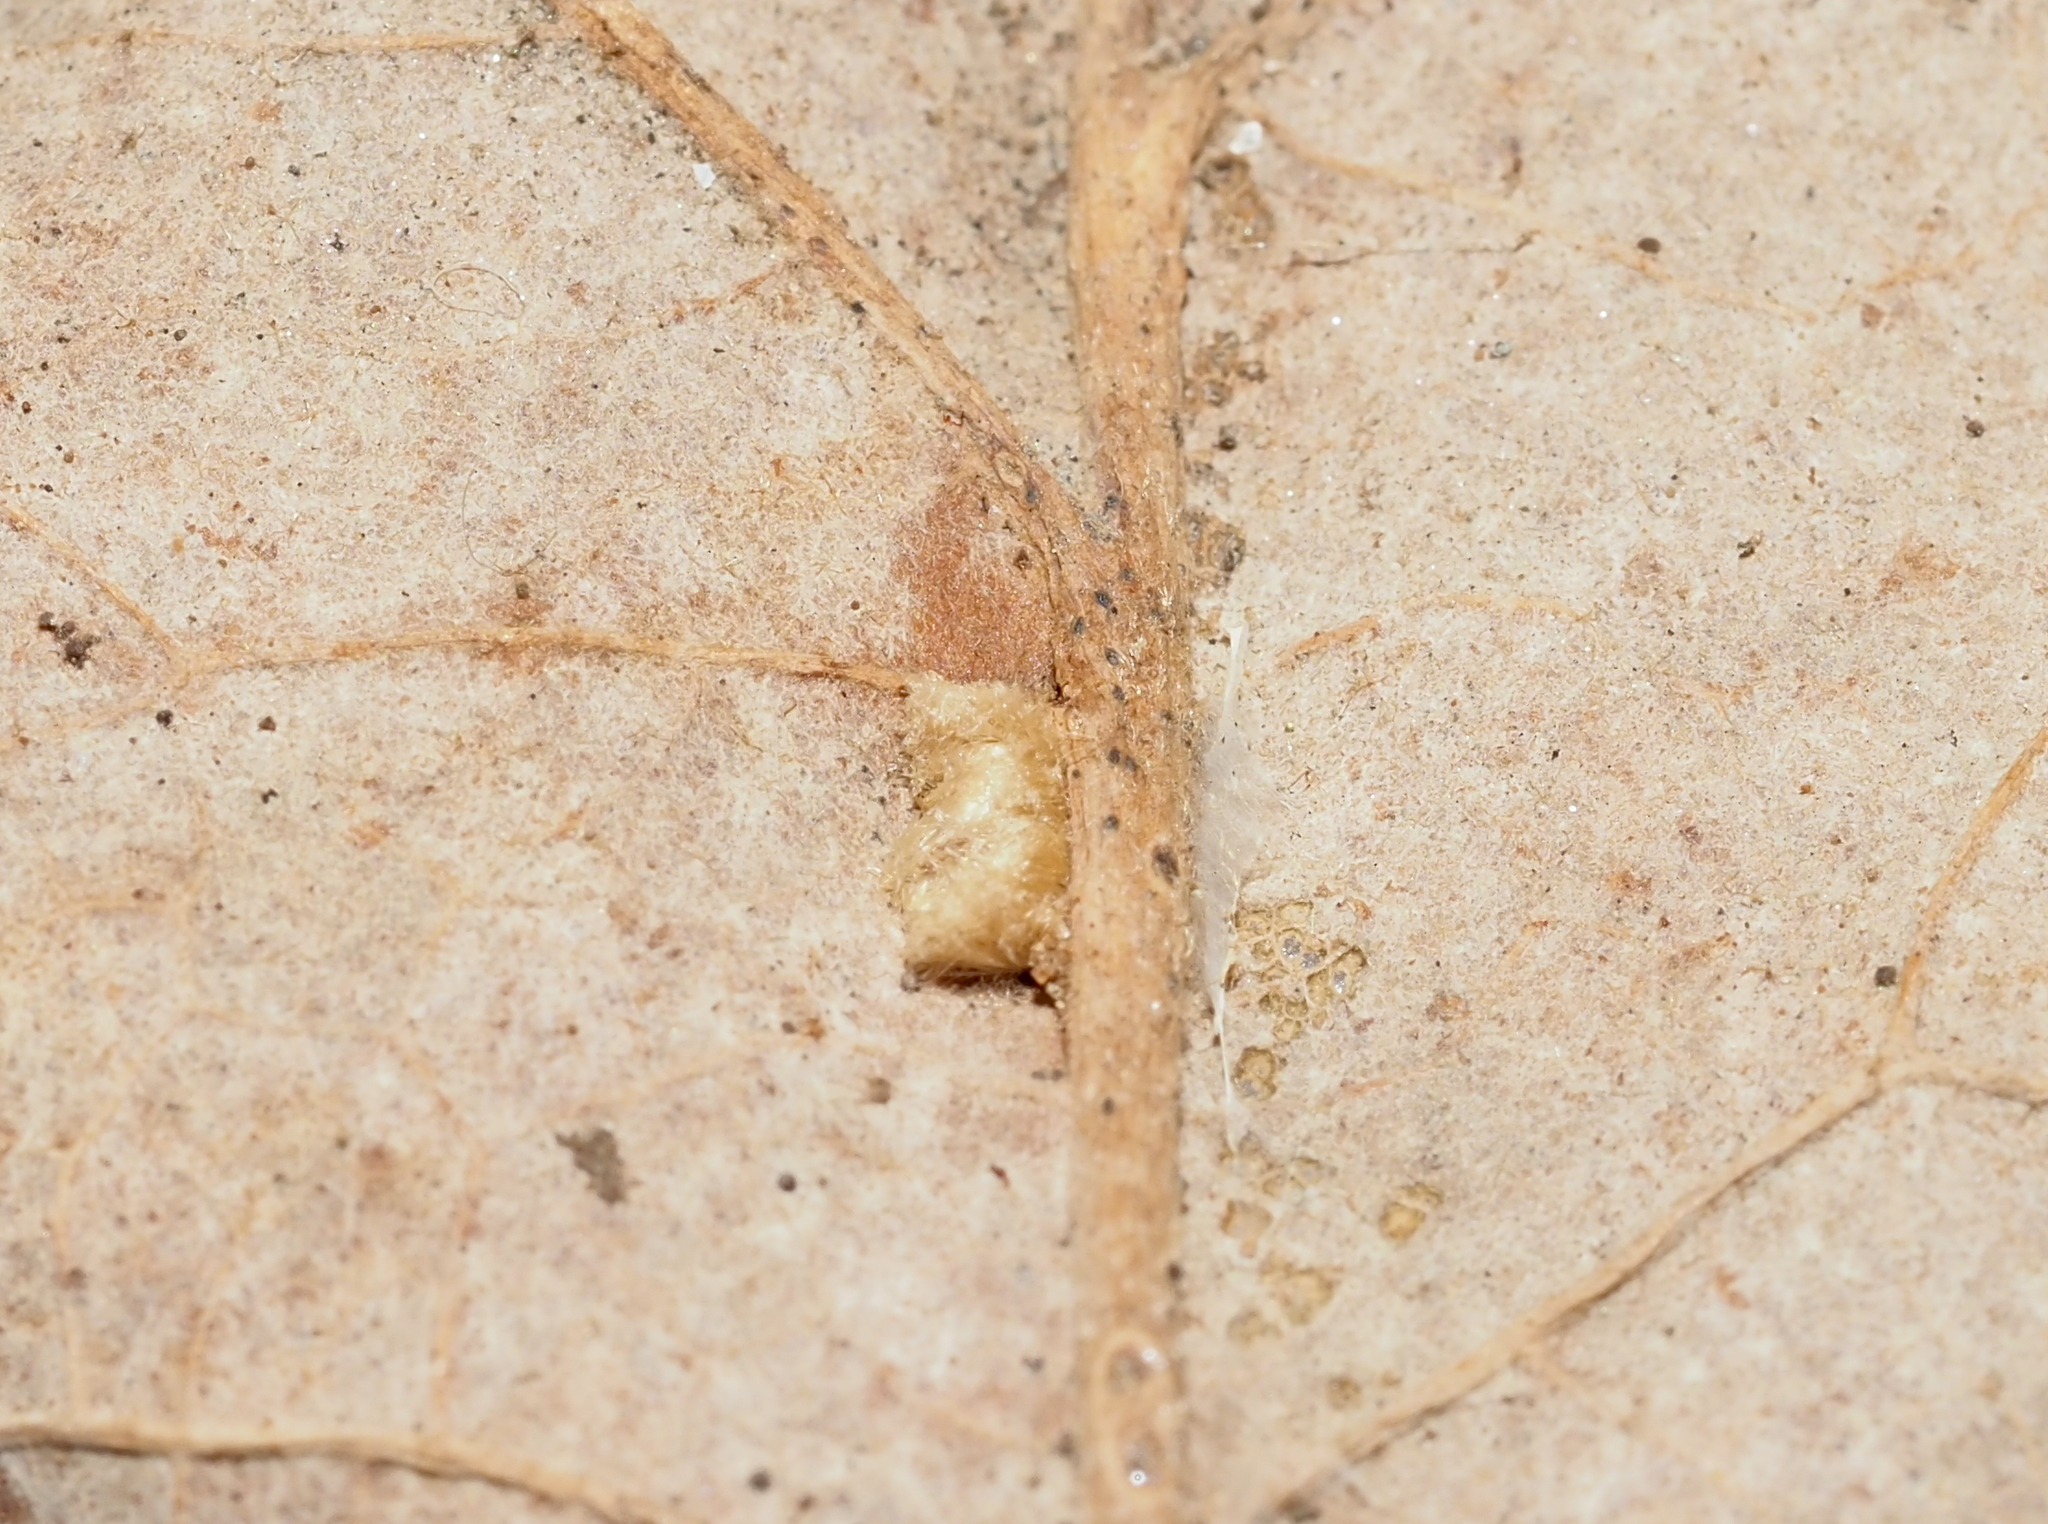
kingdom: Animalia
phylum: Arthropoda
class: Insecta
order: Hymenoptera
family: Cynipidae
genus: Andricus
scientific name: Andricus Druon pattoni
